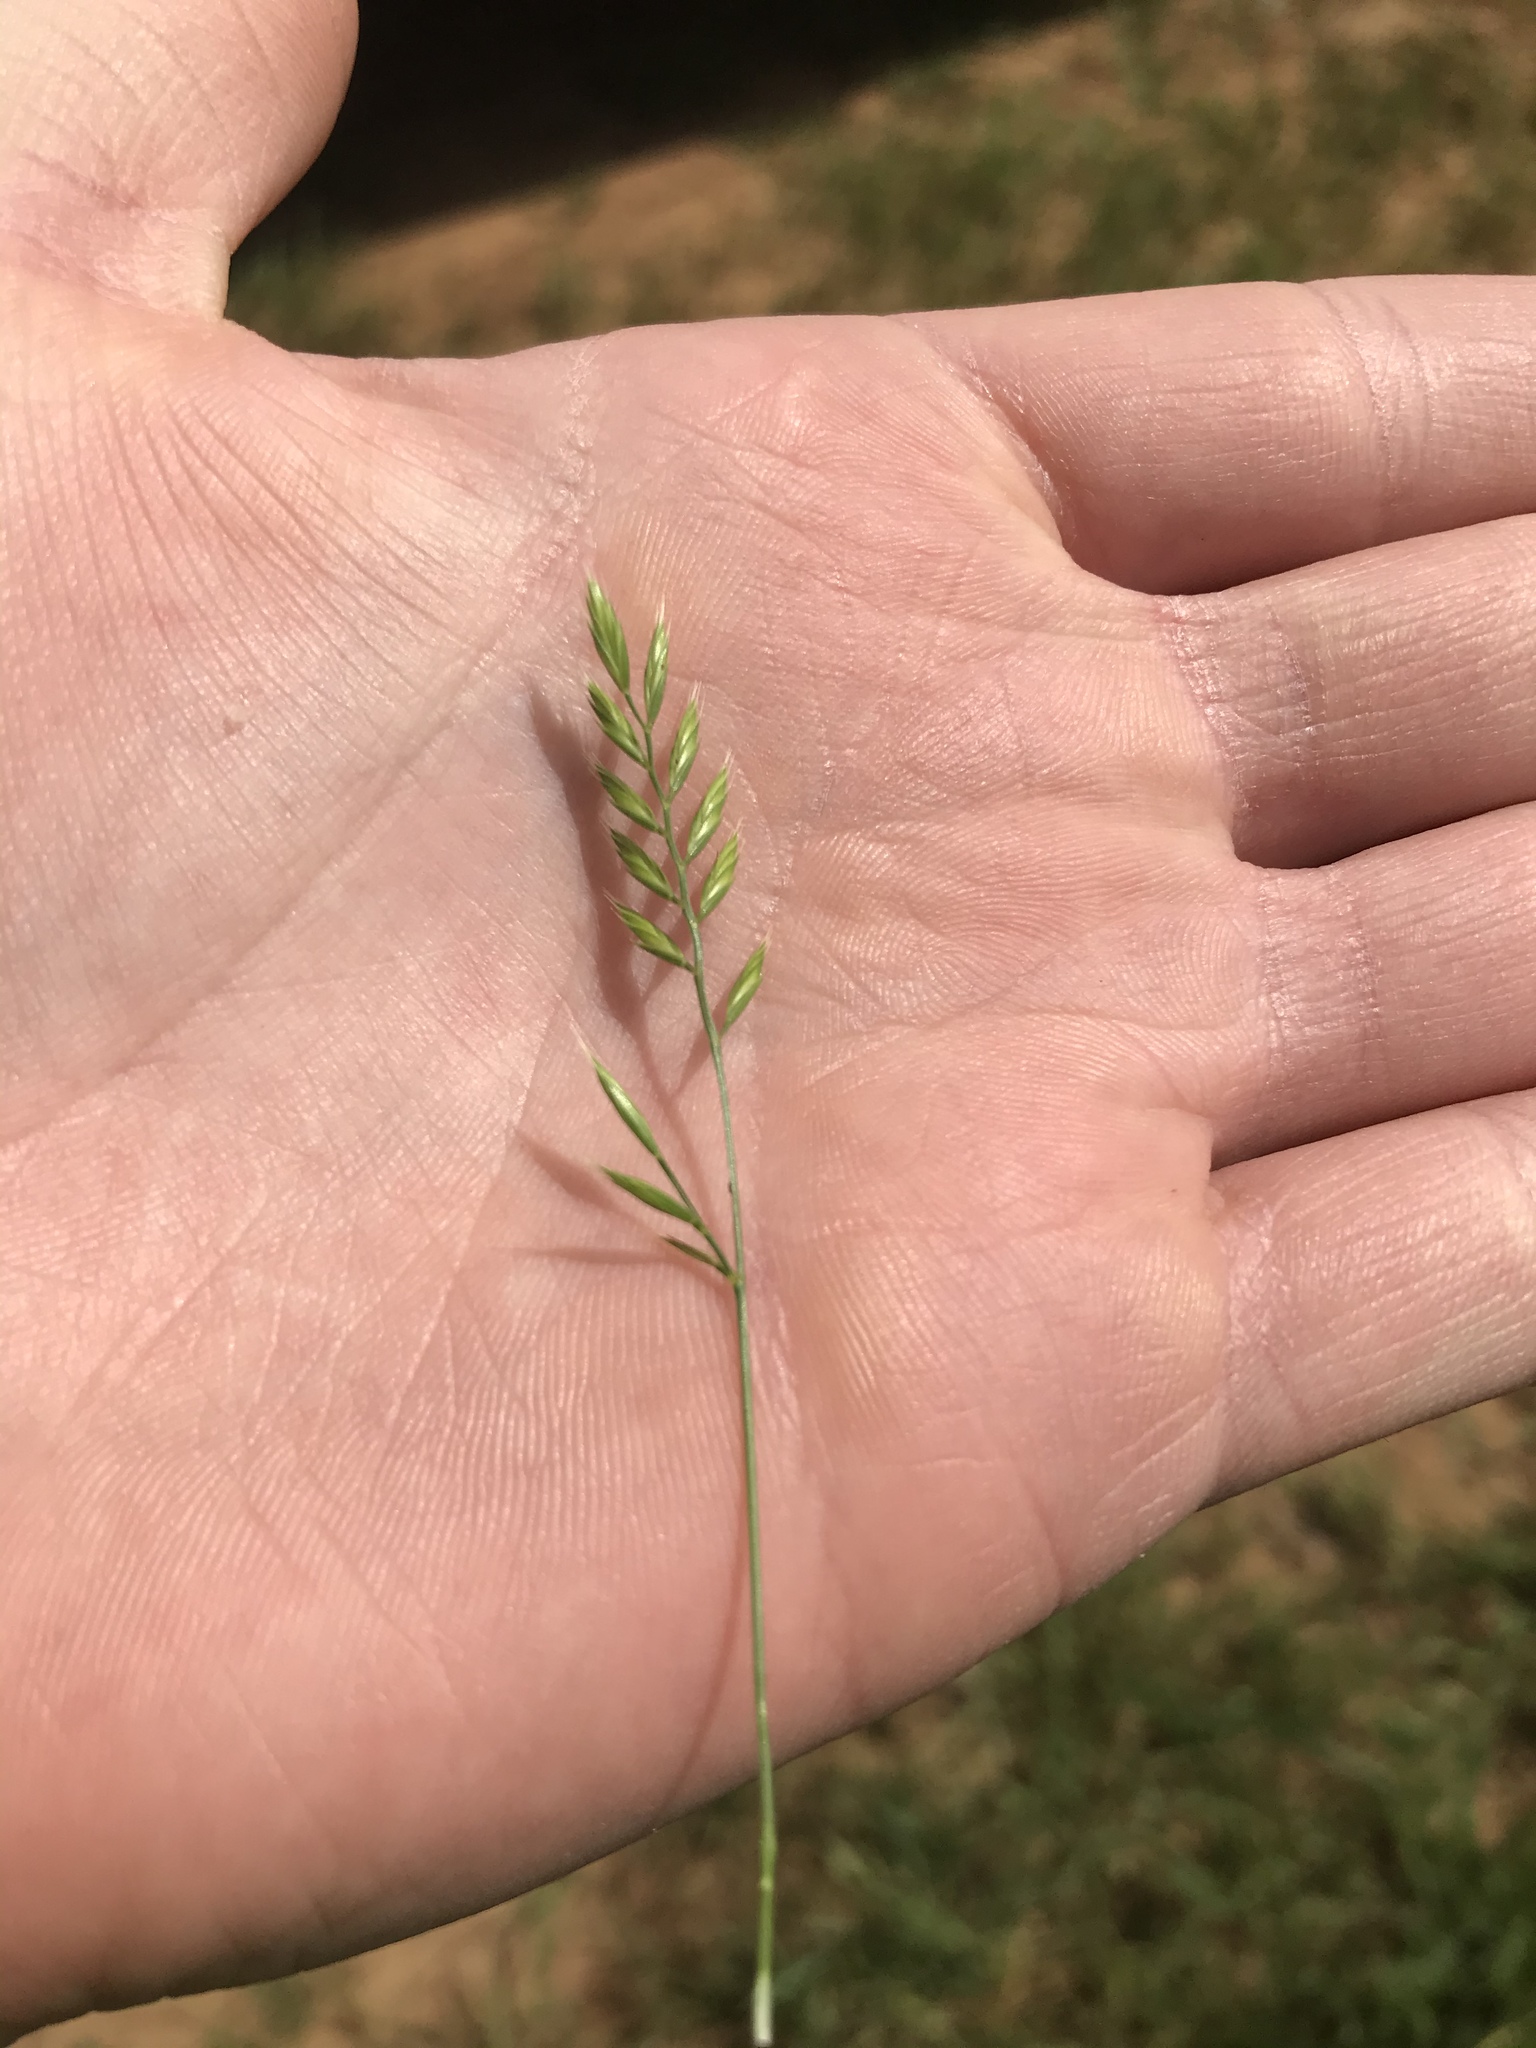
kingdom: Plantae
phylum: Tracheophyta
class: Liliopsida
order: Poales
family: Poaceae
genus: Festuca
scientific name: Festuca octoflora
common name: Sixweeks grass
